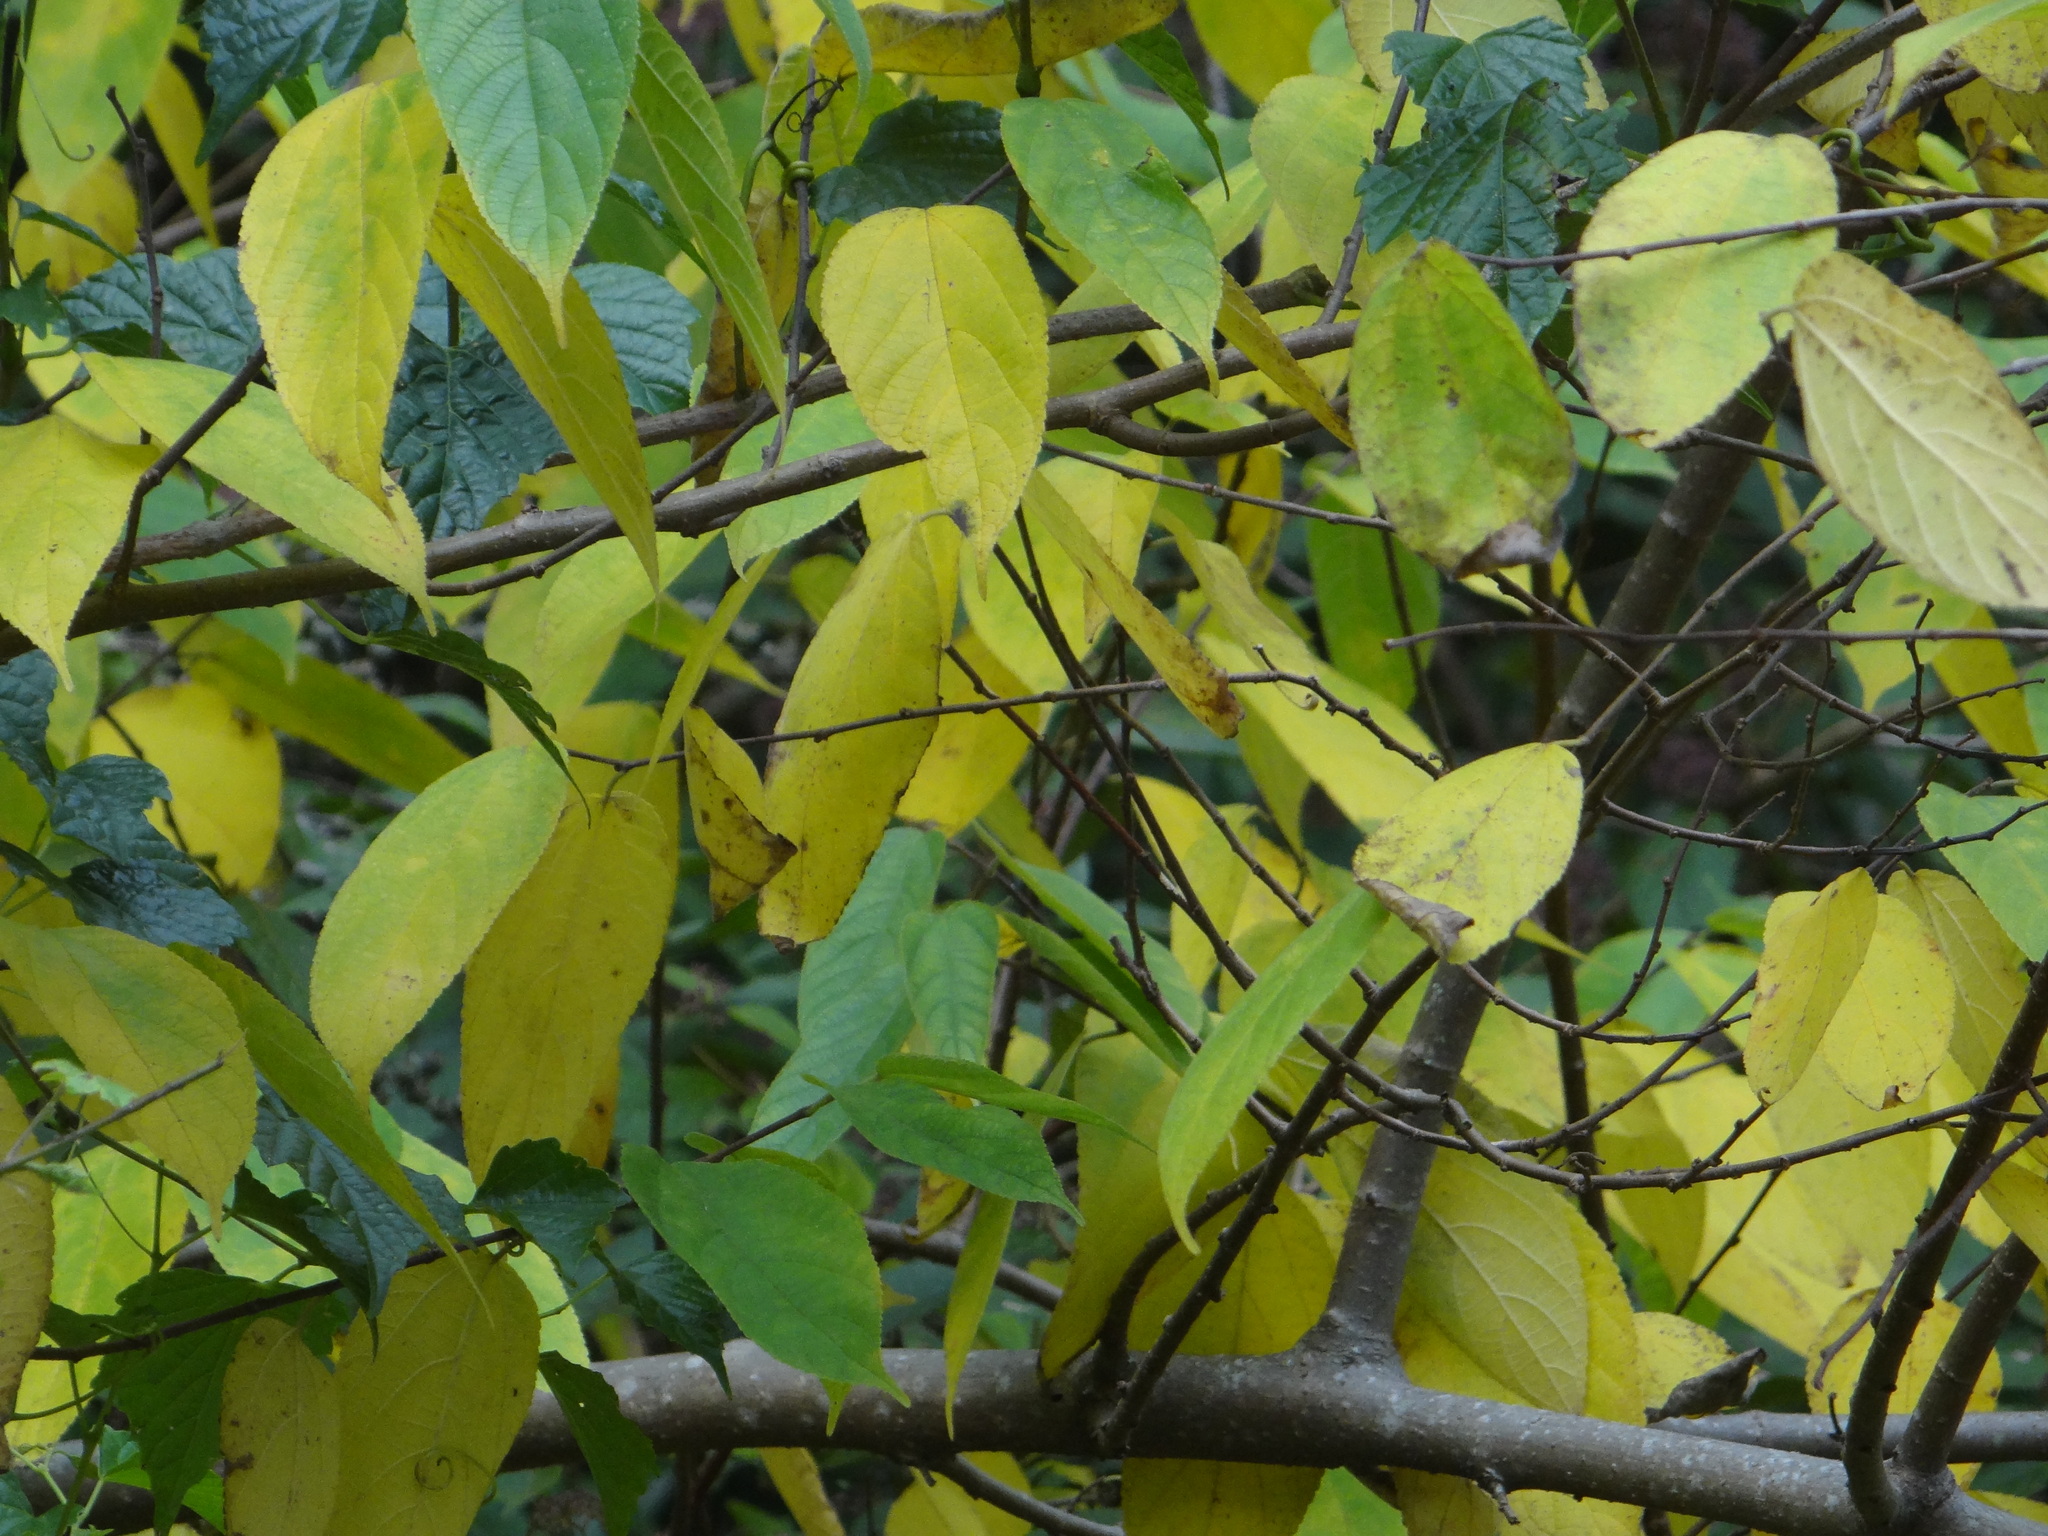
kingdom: Plantae
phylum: Tracheophyta
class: Magnoliopsida
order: Rosales
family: Moraceae
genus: Broussonetia
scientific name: Broussonetia monoica
